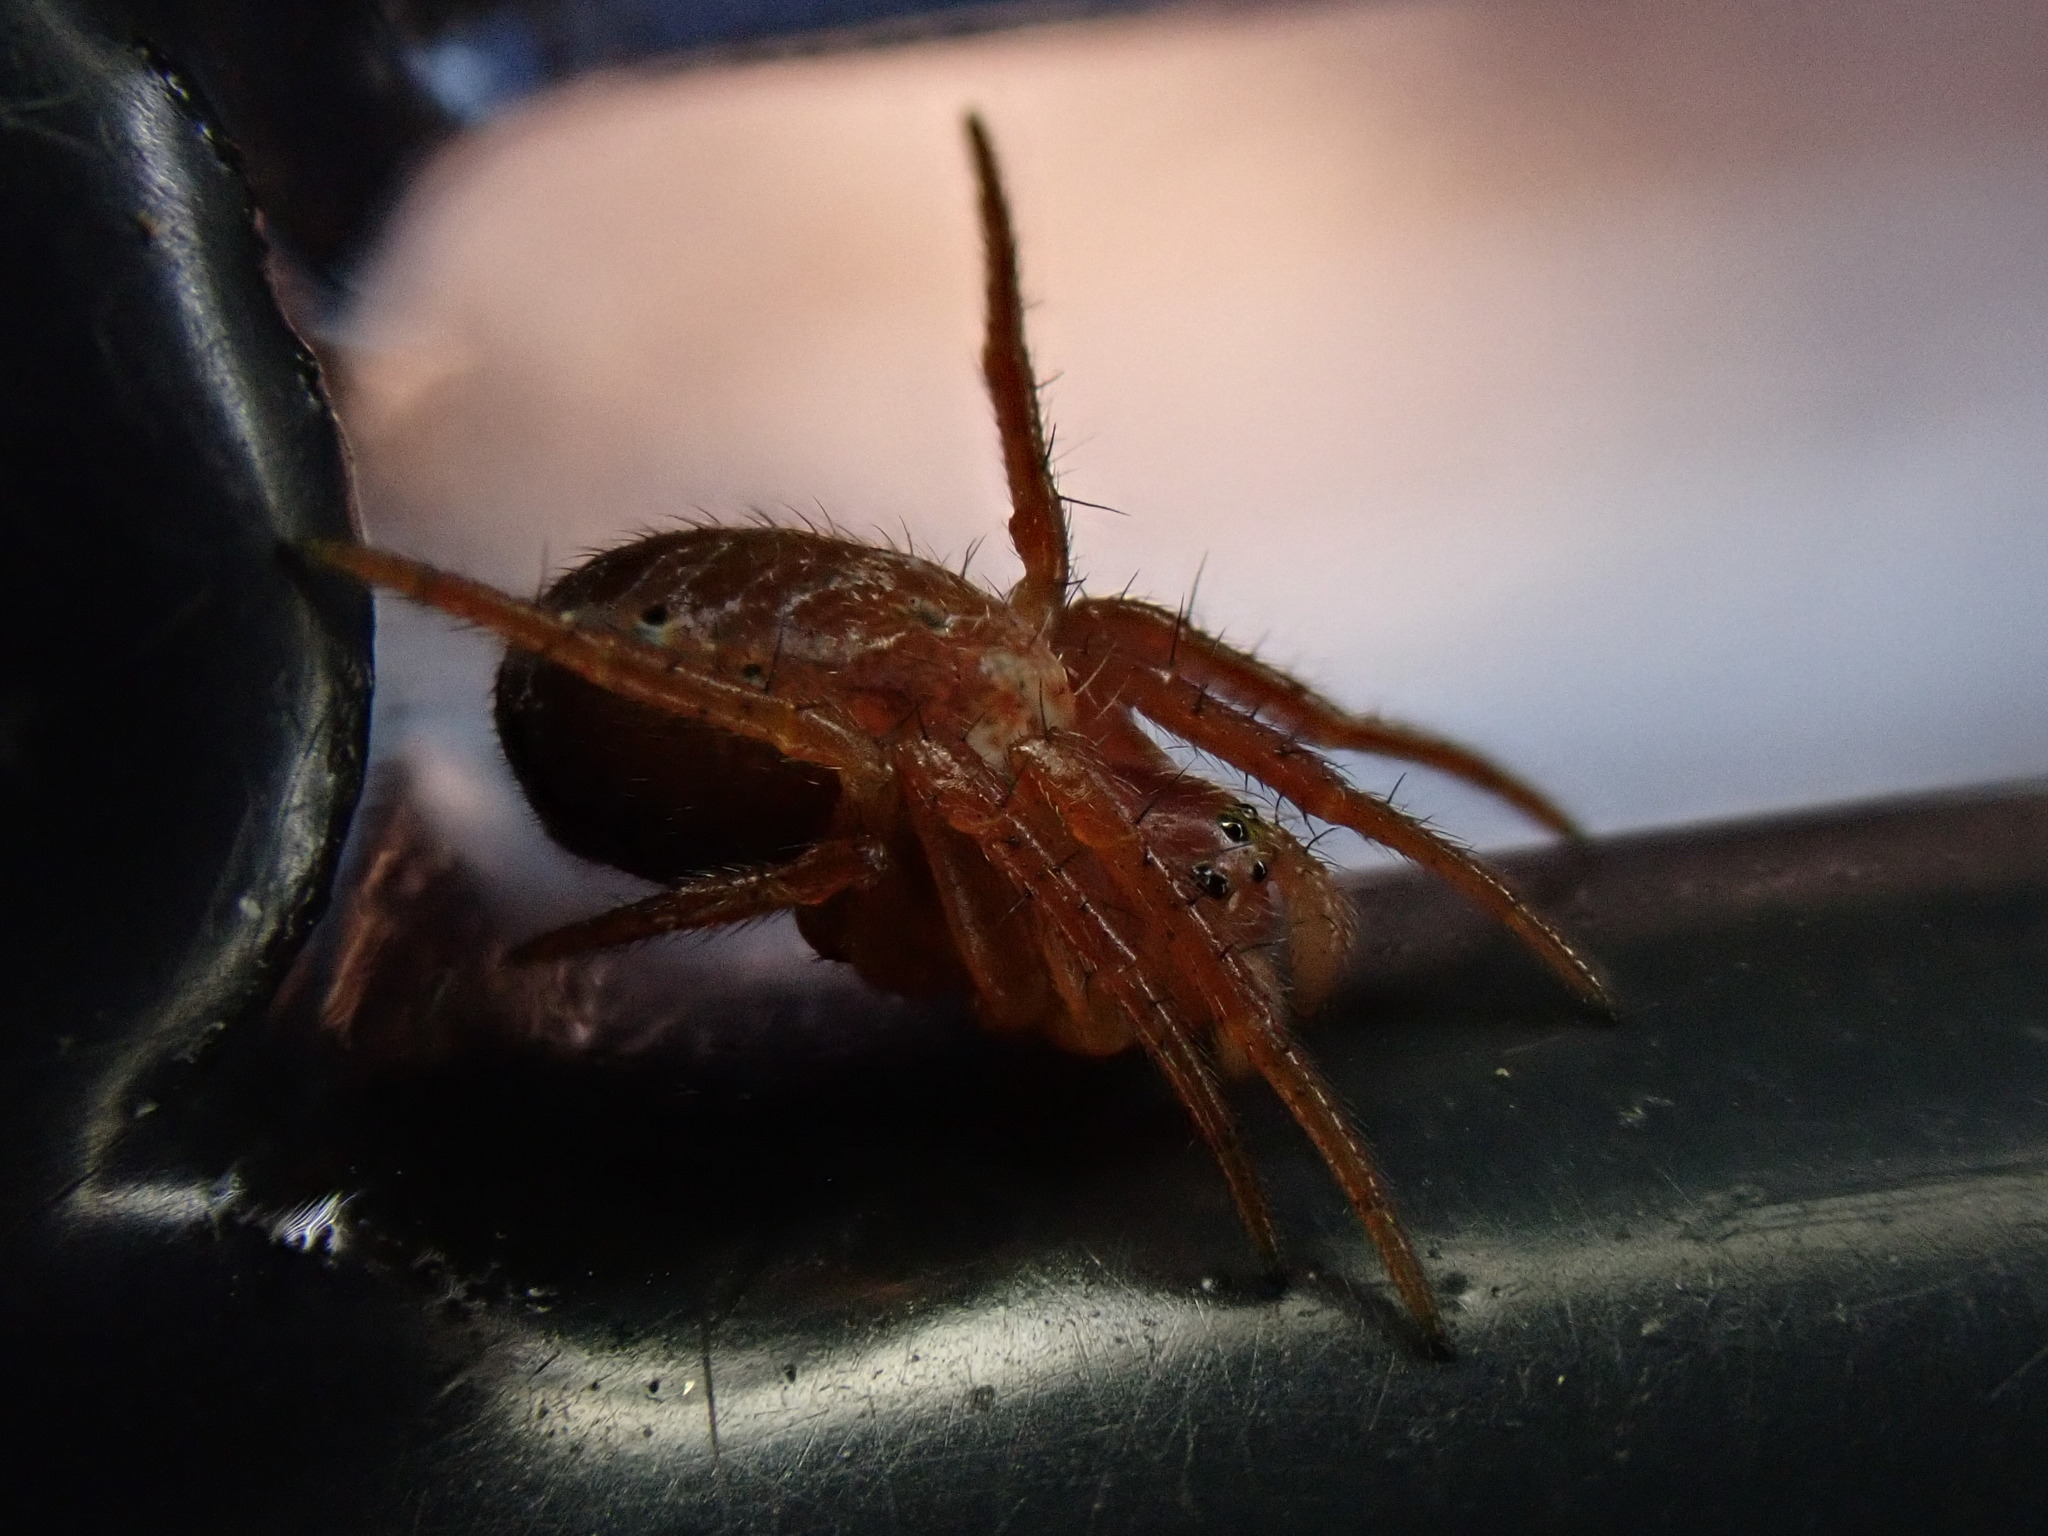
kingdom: Animalia
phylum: Arthropoda
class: Arachnida
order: Araneae
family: Araneidae
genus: Araniella
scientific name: Araniella
